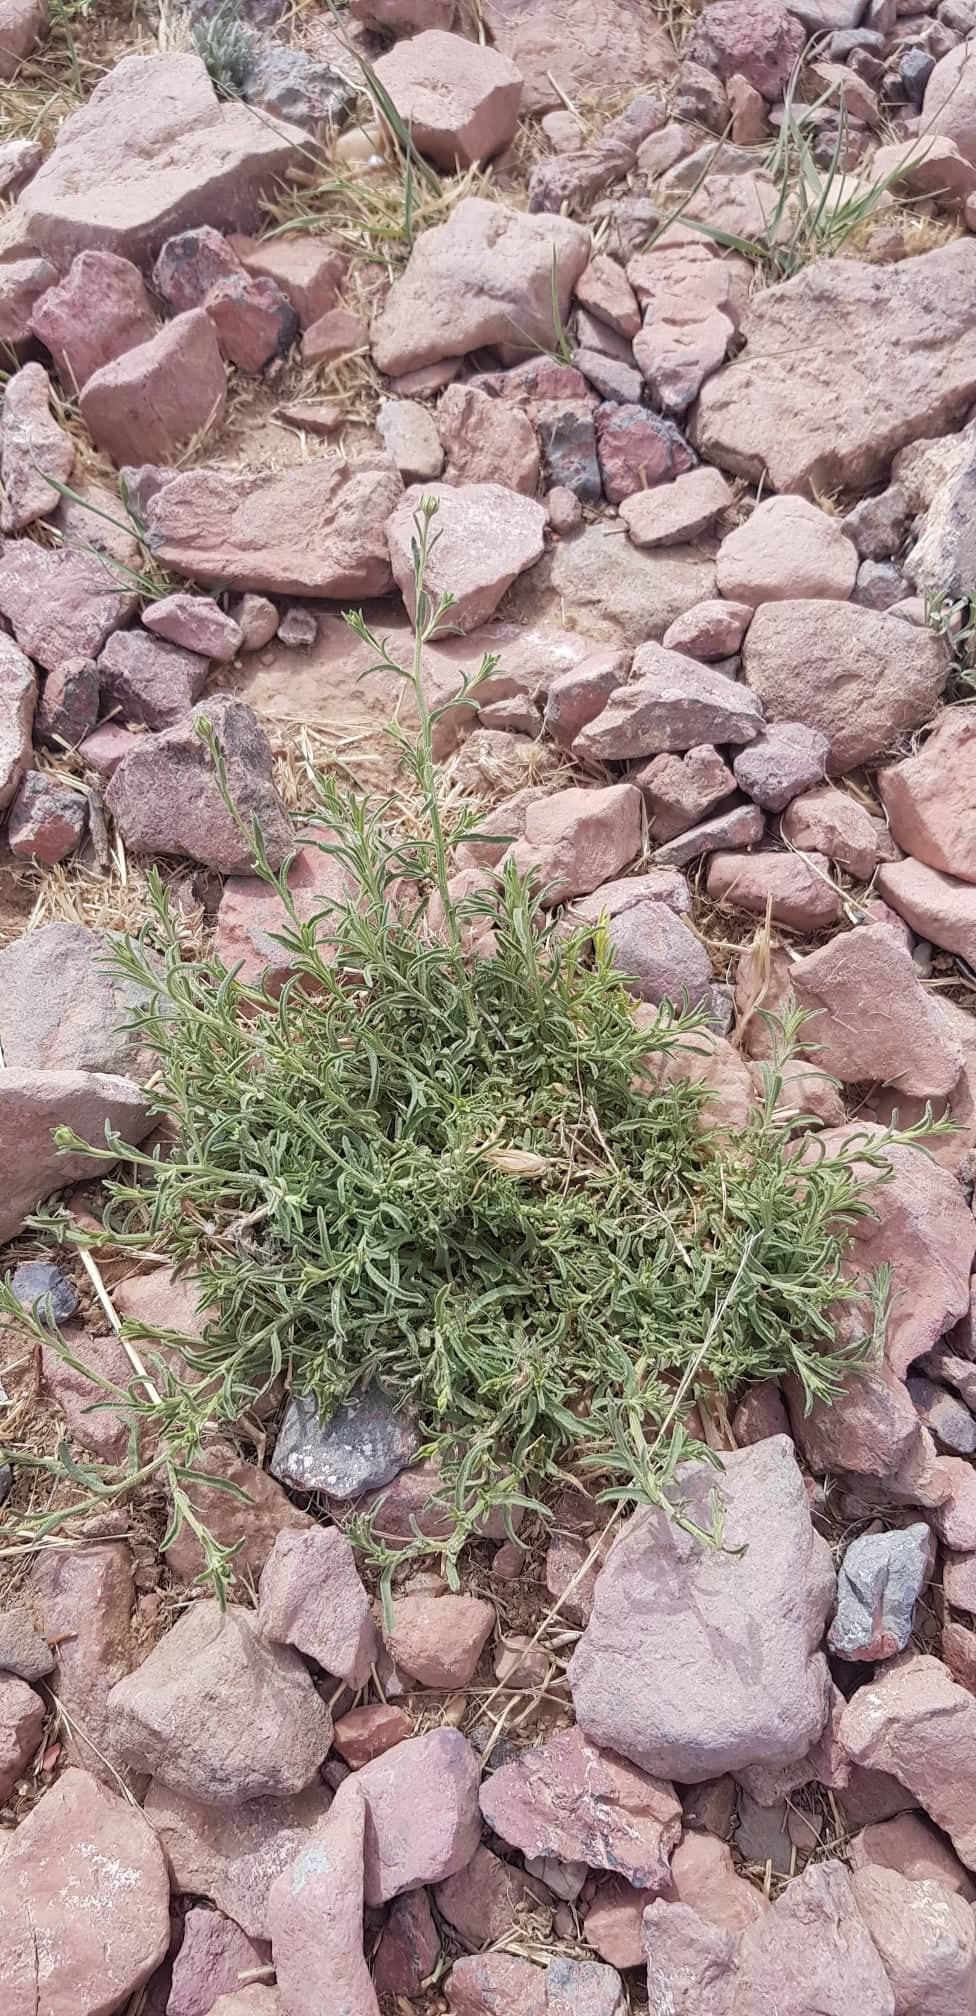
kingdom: Plantae
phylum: Tracheophyta
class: Magnoliopsida
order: Asterales
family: Asteraceae
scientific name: Asteraceae
